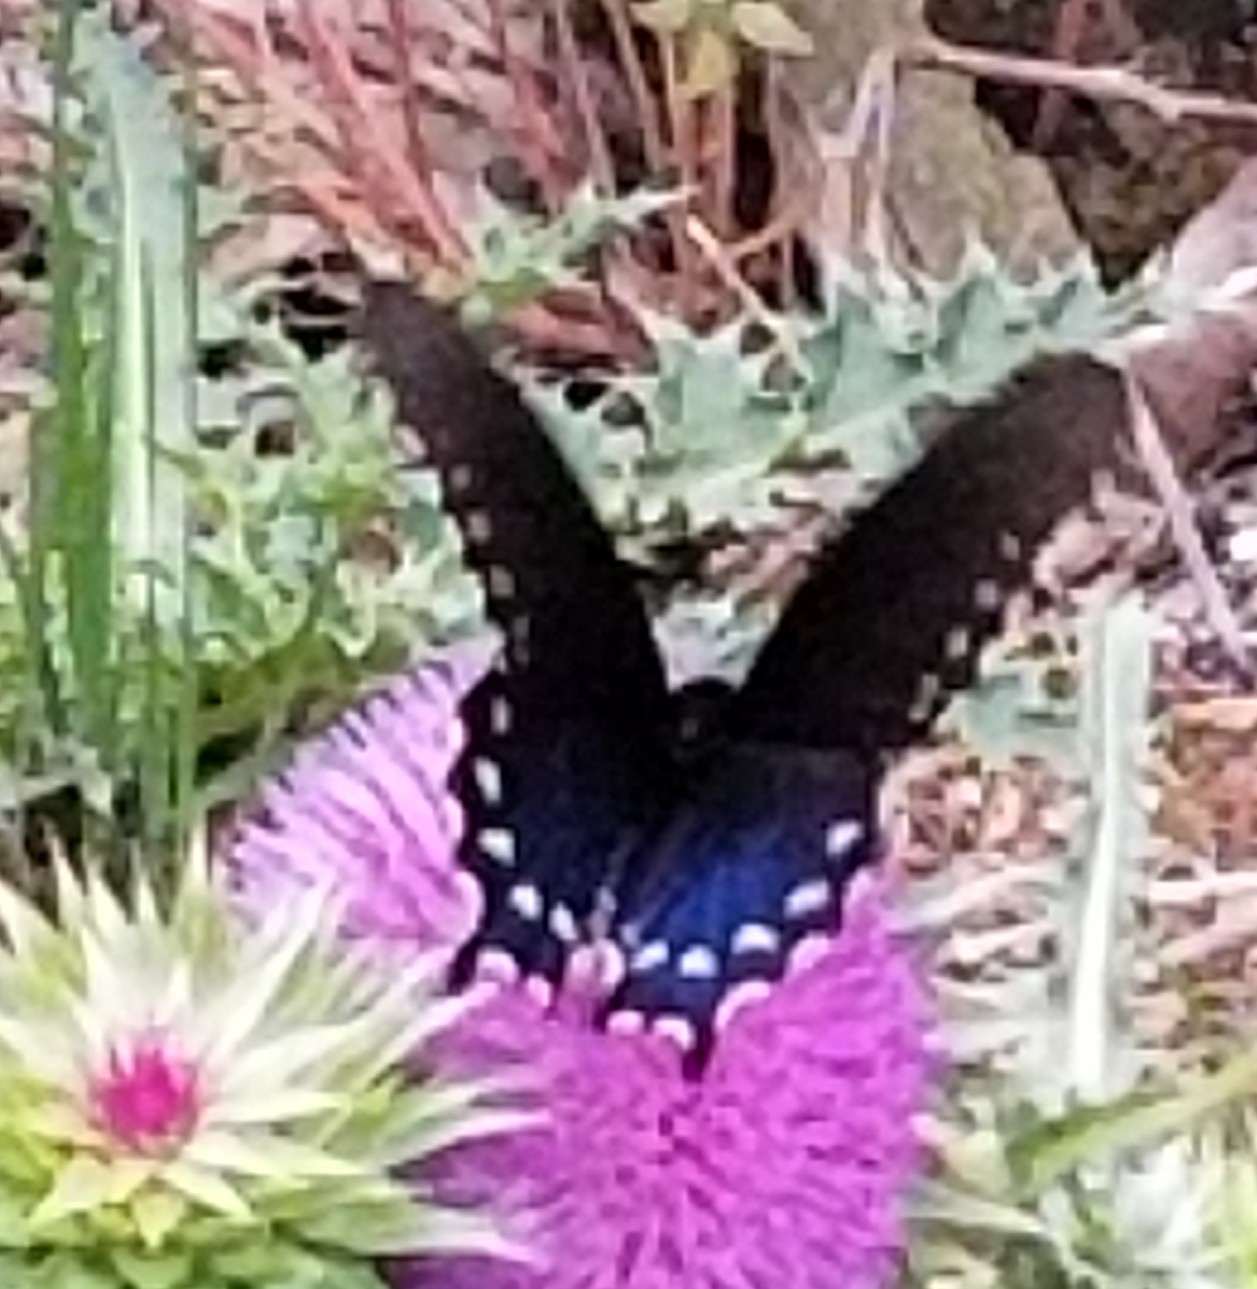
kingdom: Animalia
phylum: Arthropoda
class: Insecta
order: Lepidoptera
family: Papilionidae
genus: Battus
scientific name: Battus philenor
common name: Pipevine swallowtail
